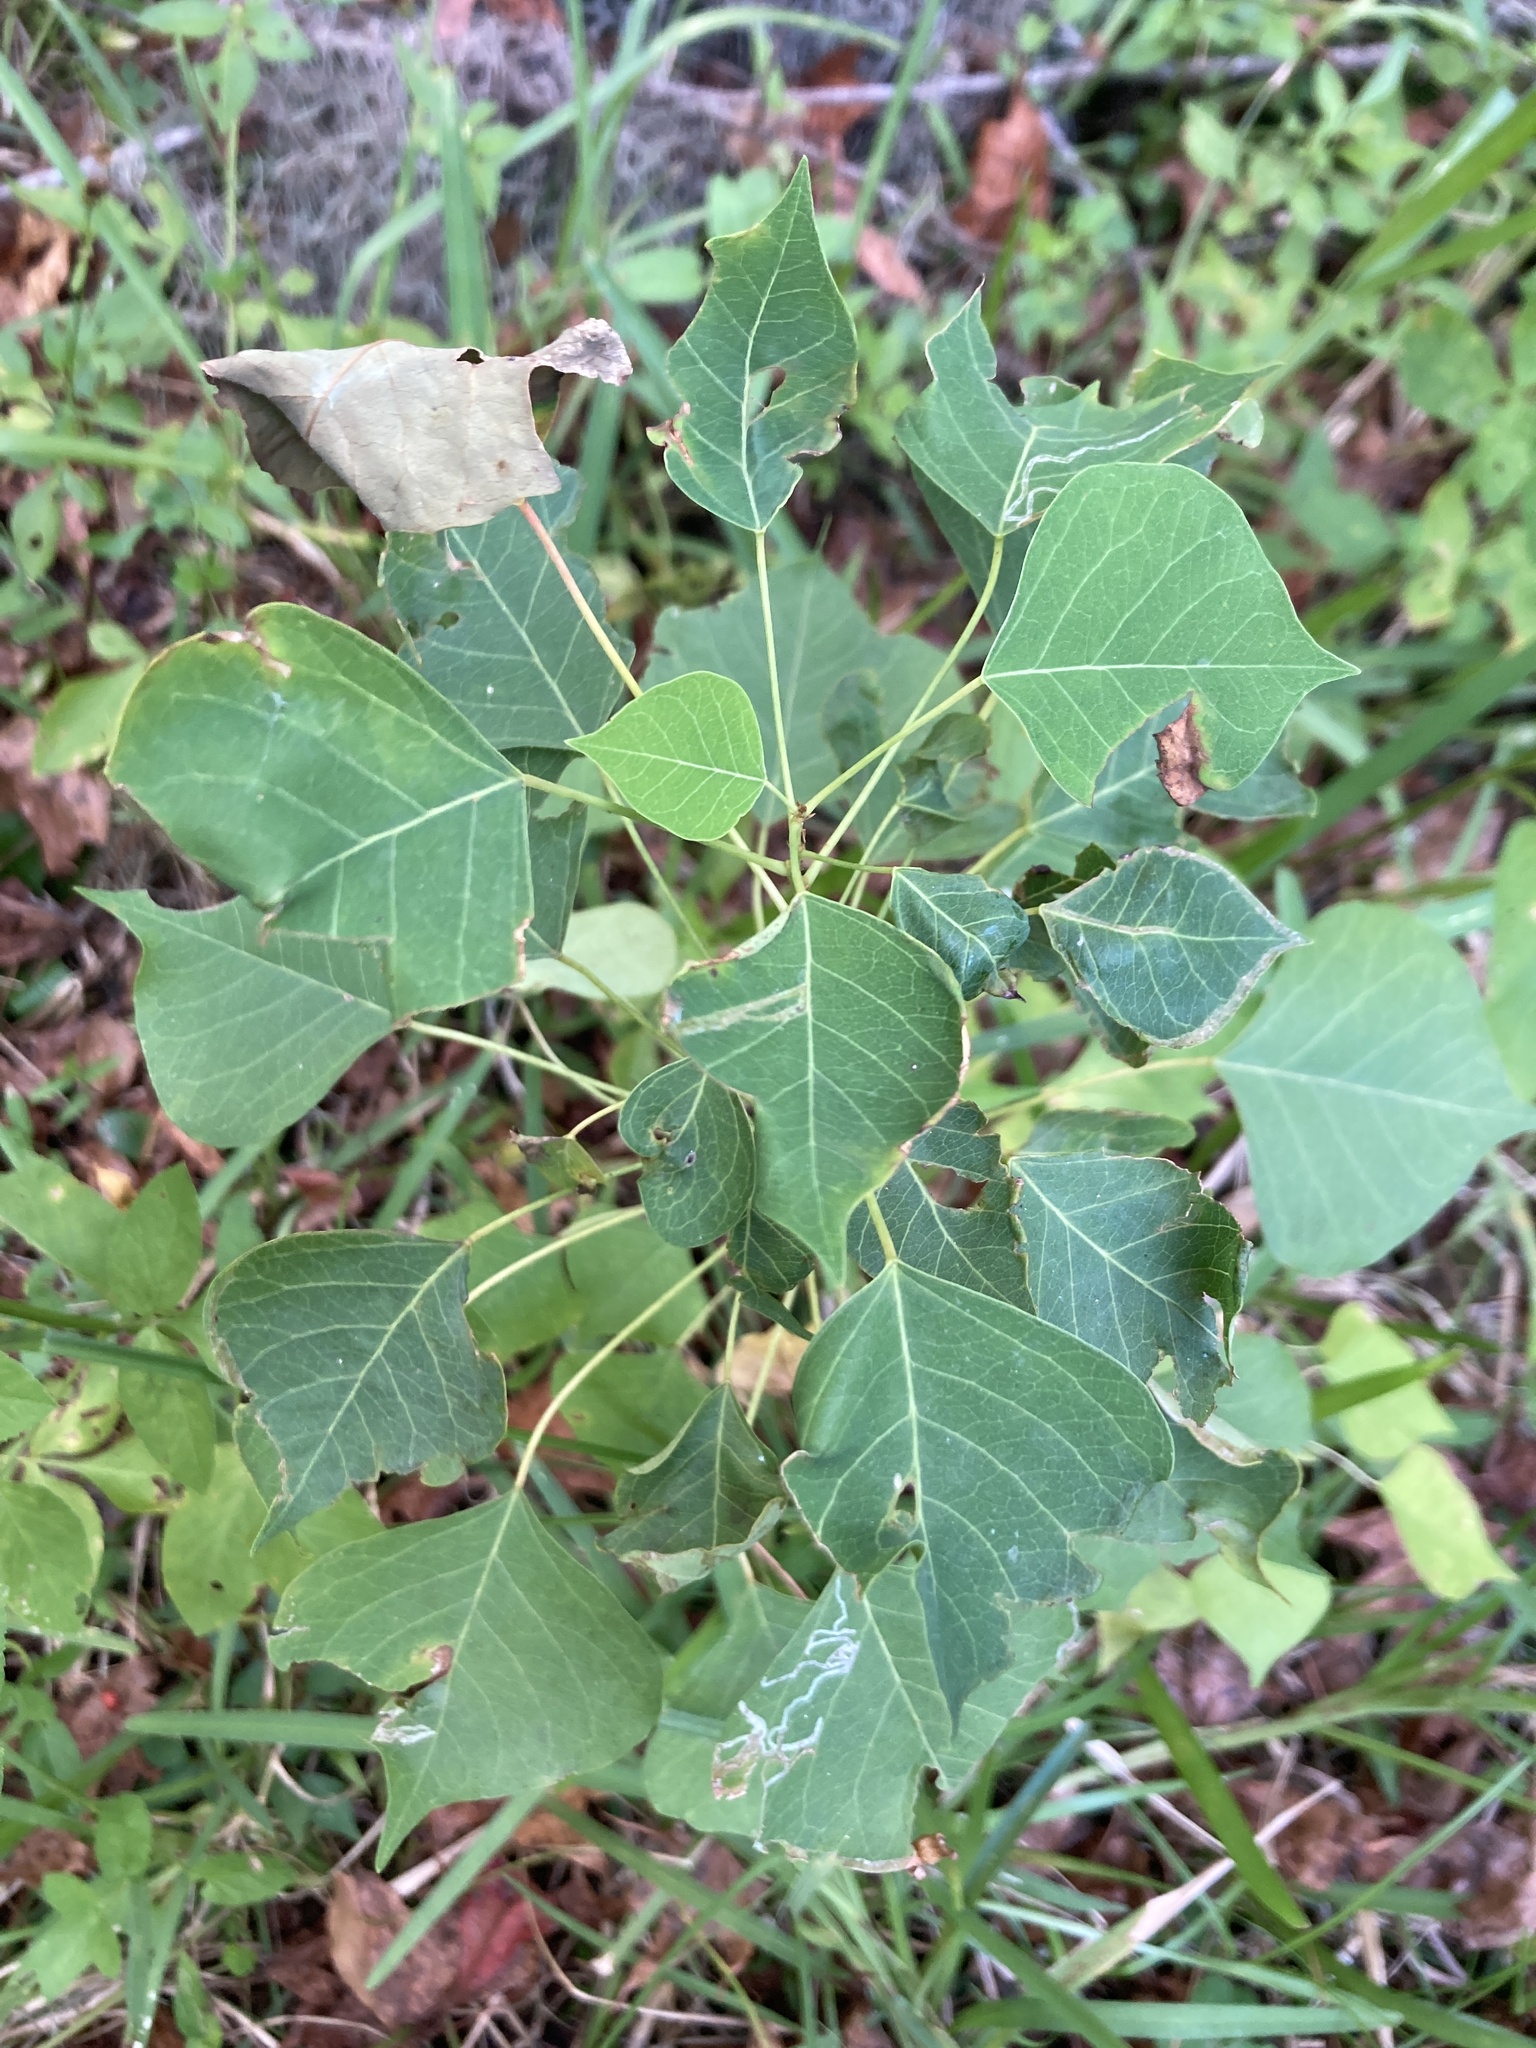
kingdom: Plantae
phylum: Tracheophyta
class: Magnoliopsida
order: Malpighiales
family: Euphorbiaceae
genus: Triadica
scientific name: Triadica sebifera
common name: Chinese tallow
